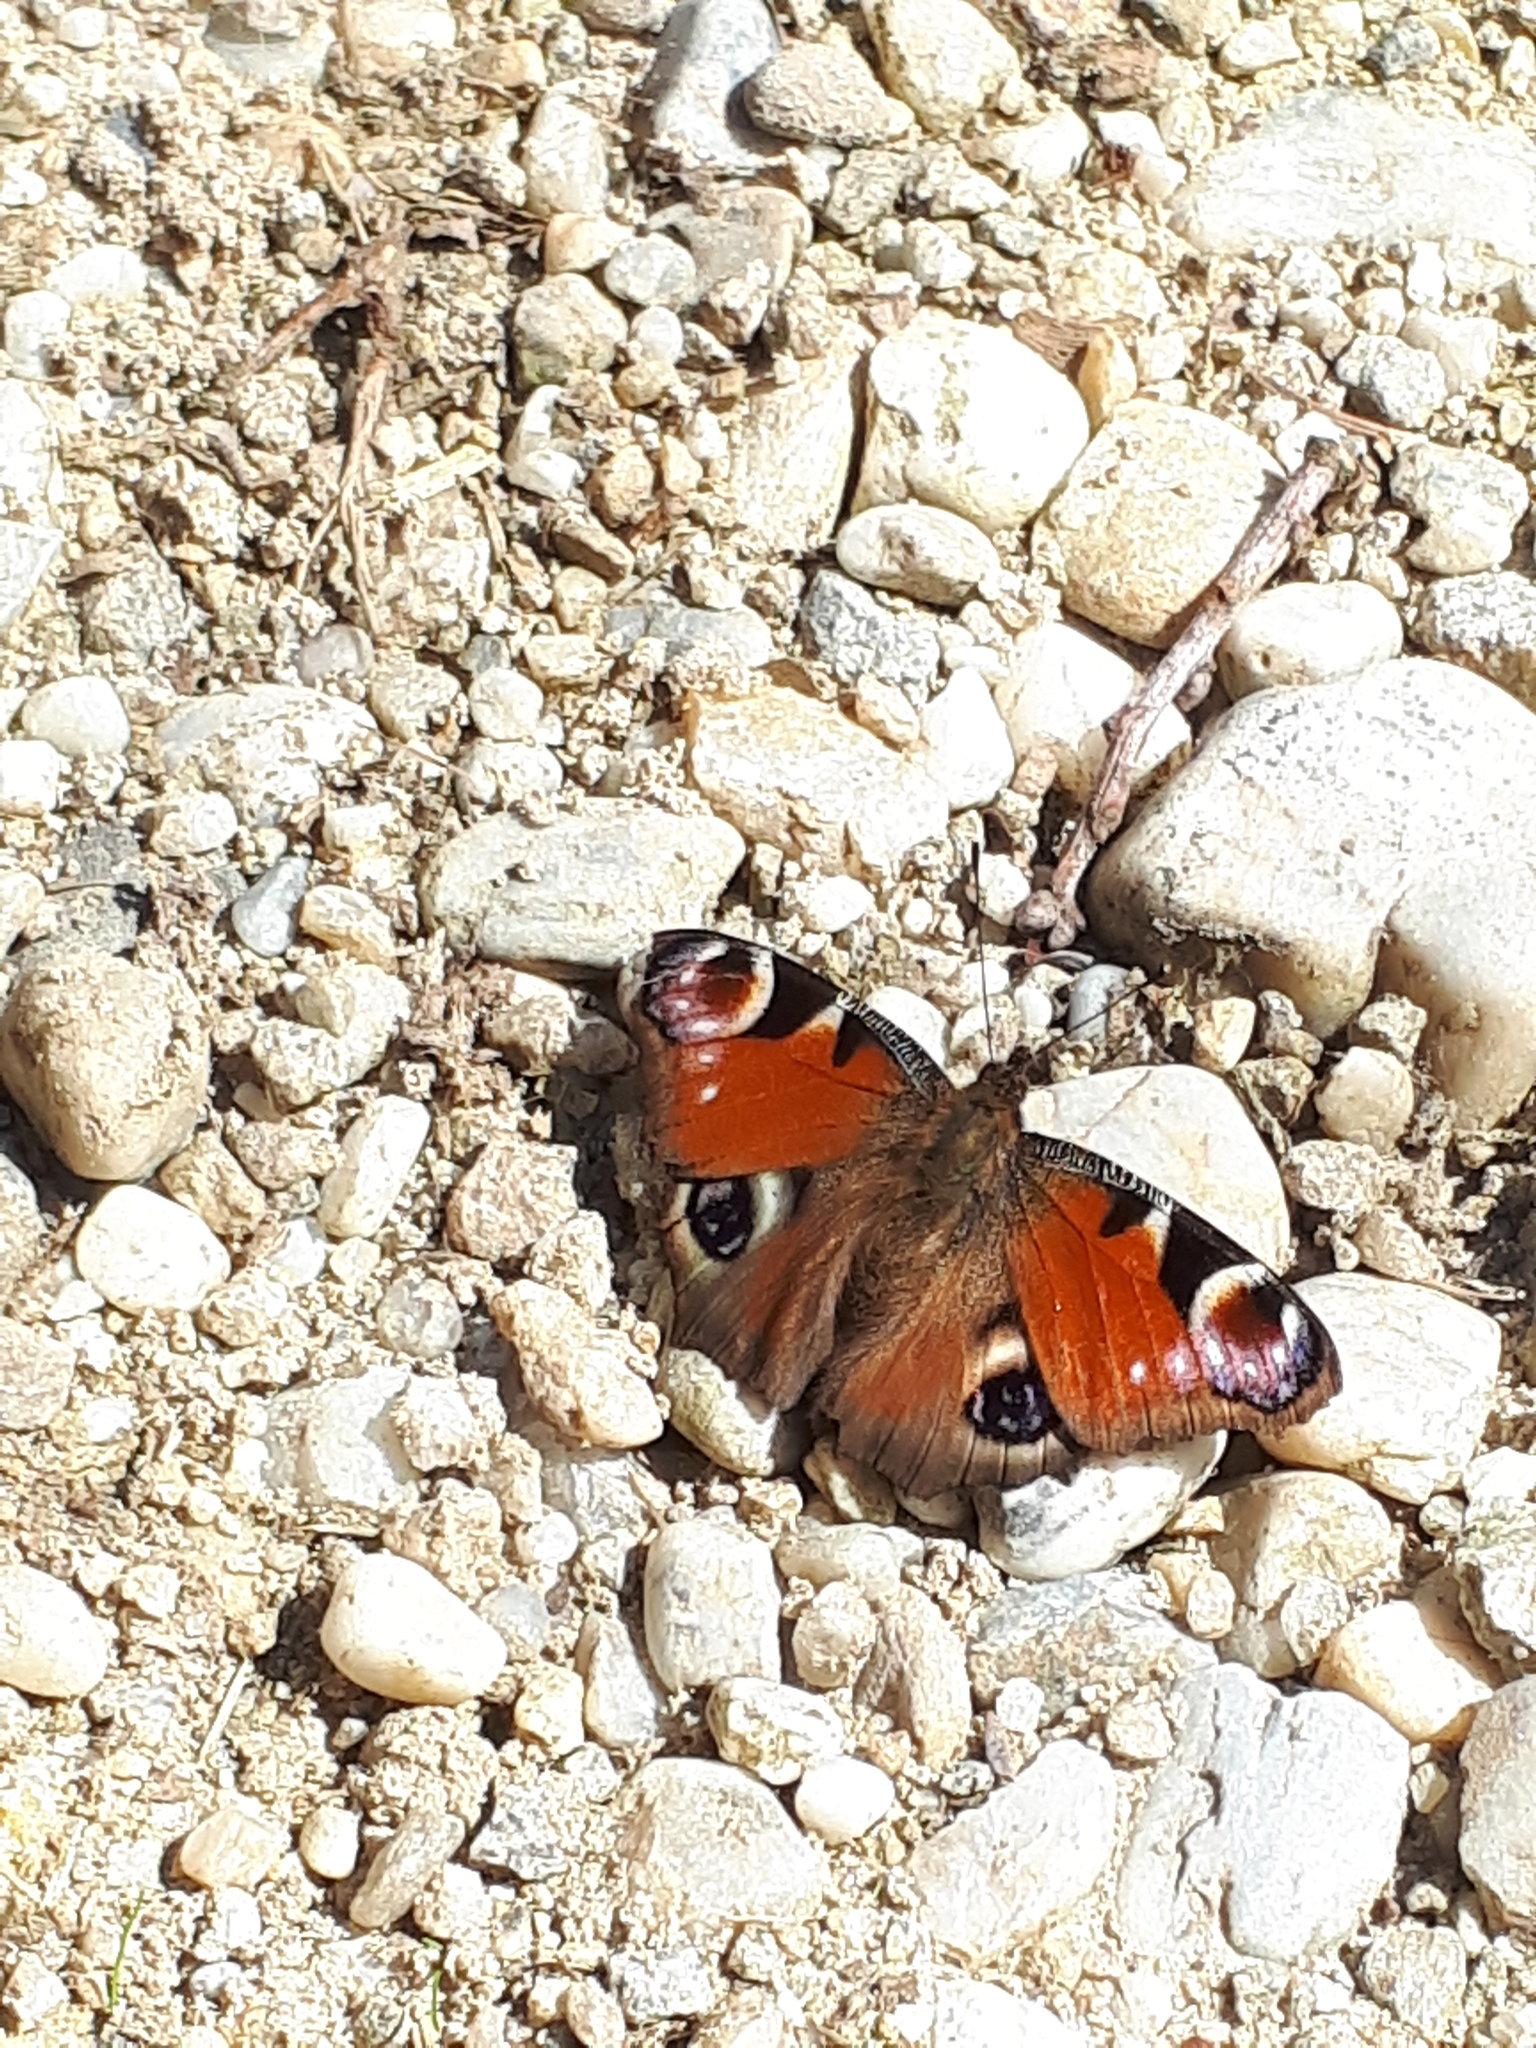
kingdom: Animalia
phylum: Arthropoda
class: Insecta
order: Lepidoptera
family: Nymphalidae
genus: Aglais
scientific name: Aglais io
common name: Peacock
